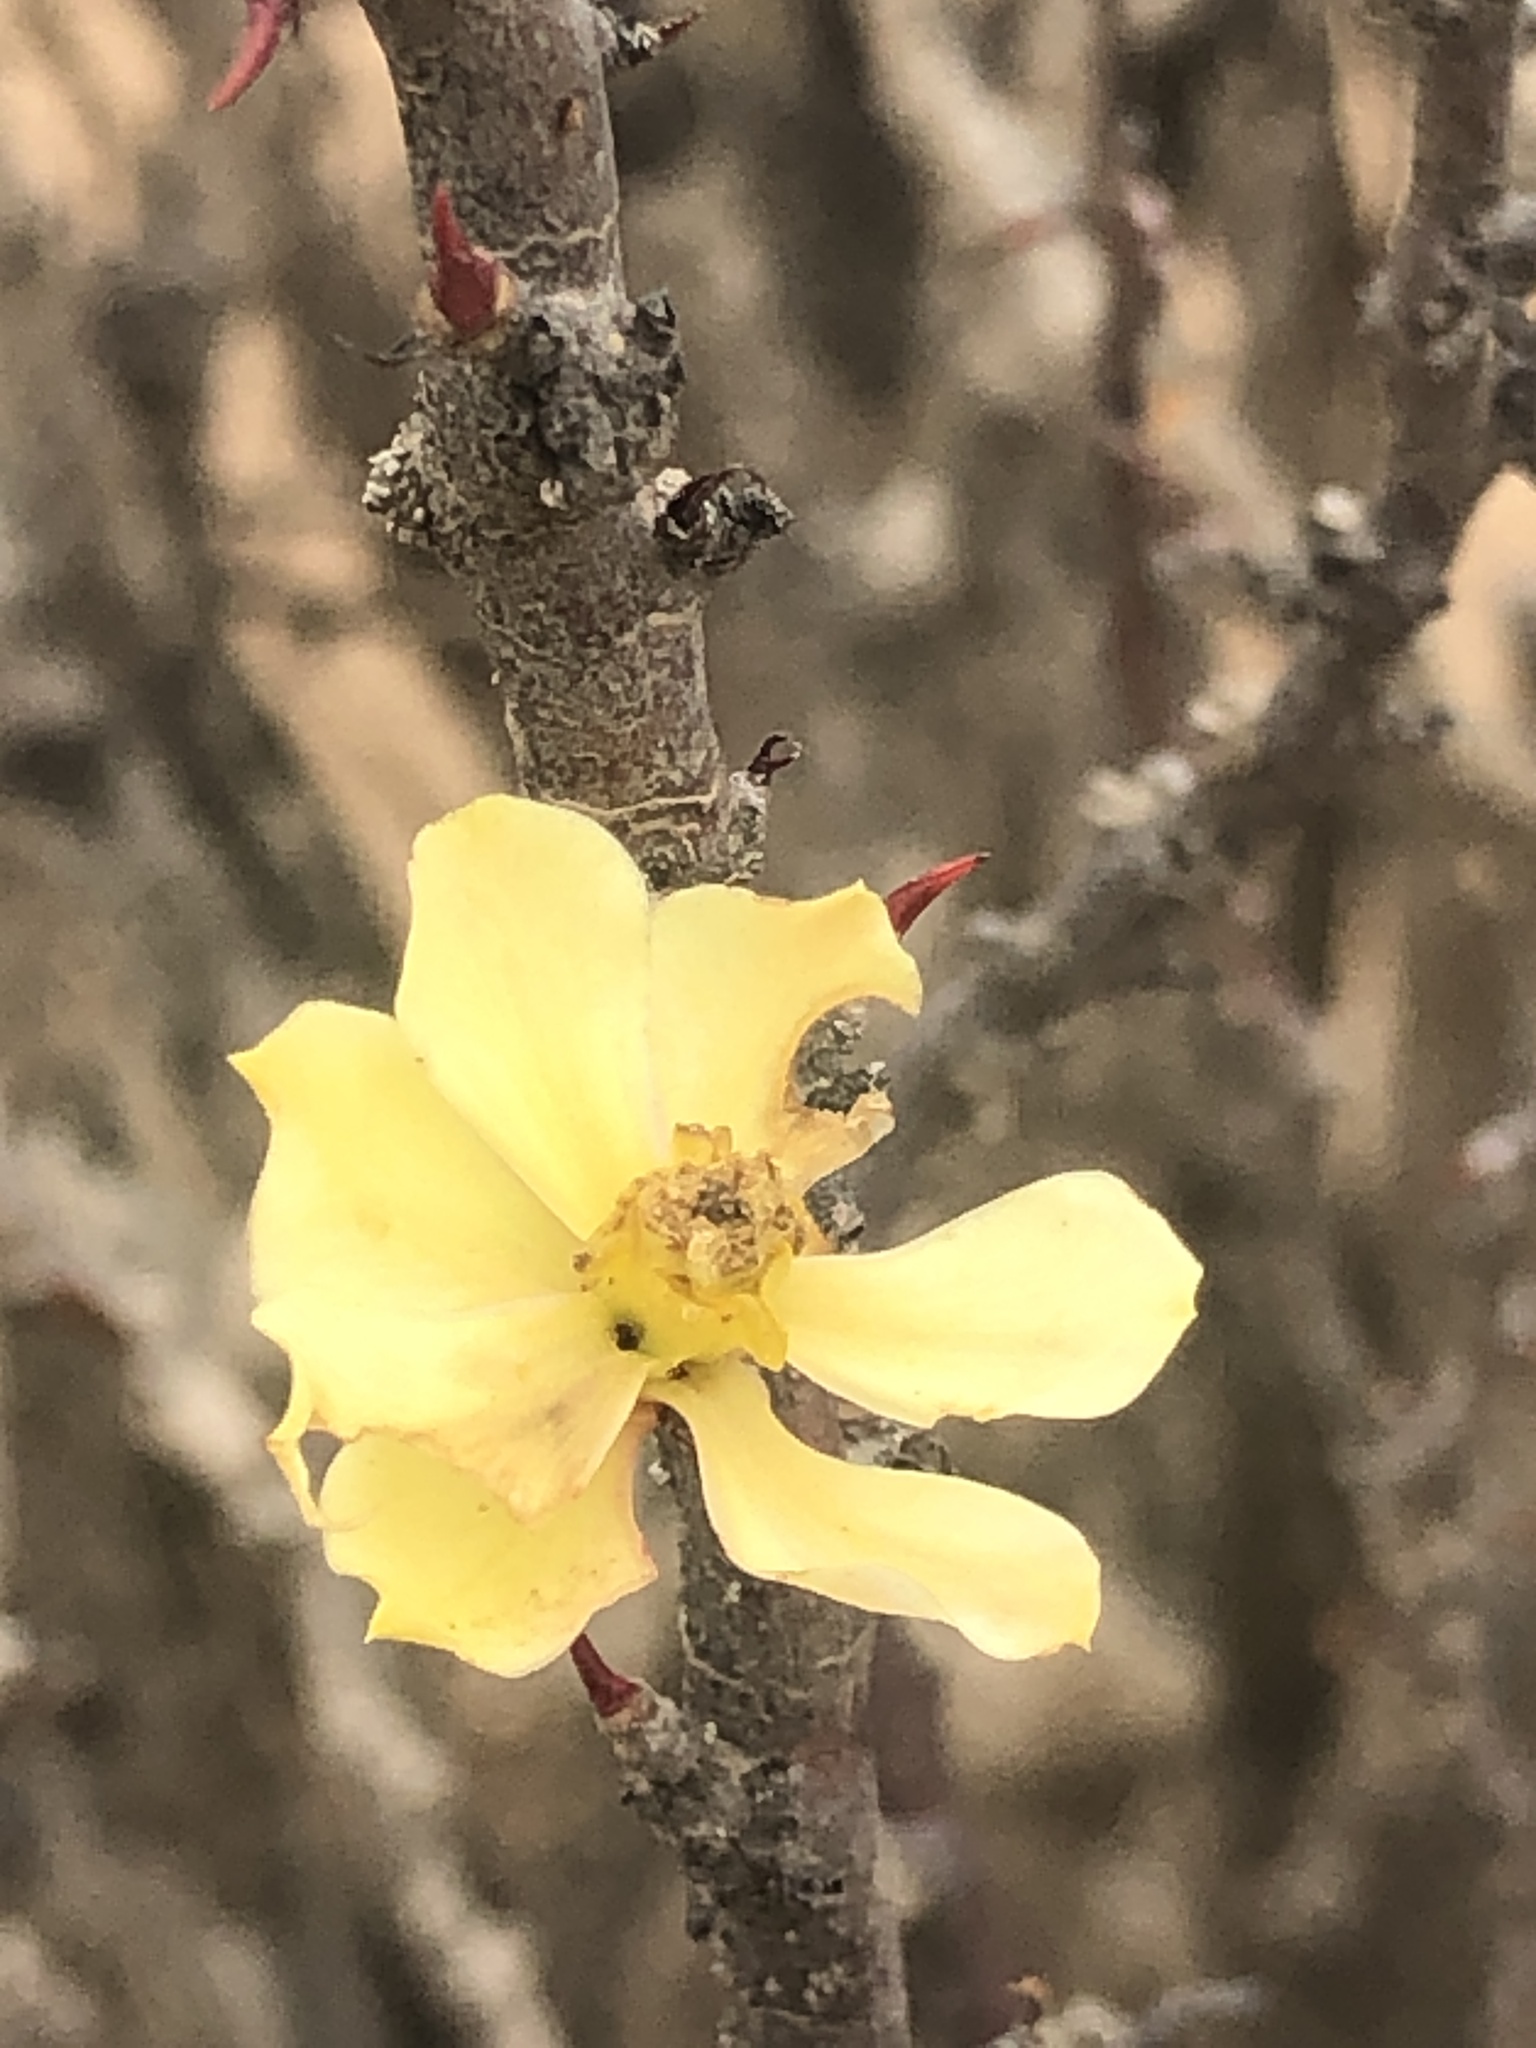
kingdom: Plantae
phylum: Tracheophyta
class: Magnoliopsida
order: Malpighiales
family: Euphorbiaceae
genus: Euphorbia
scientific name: Euphorbia lactiflua
